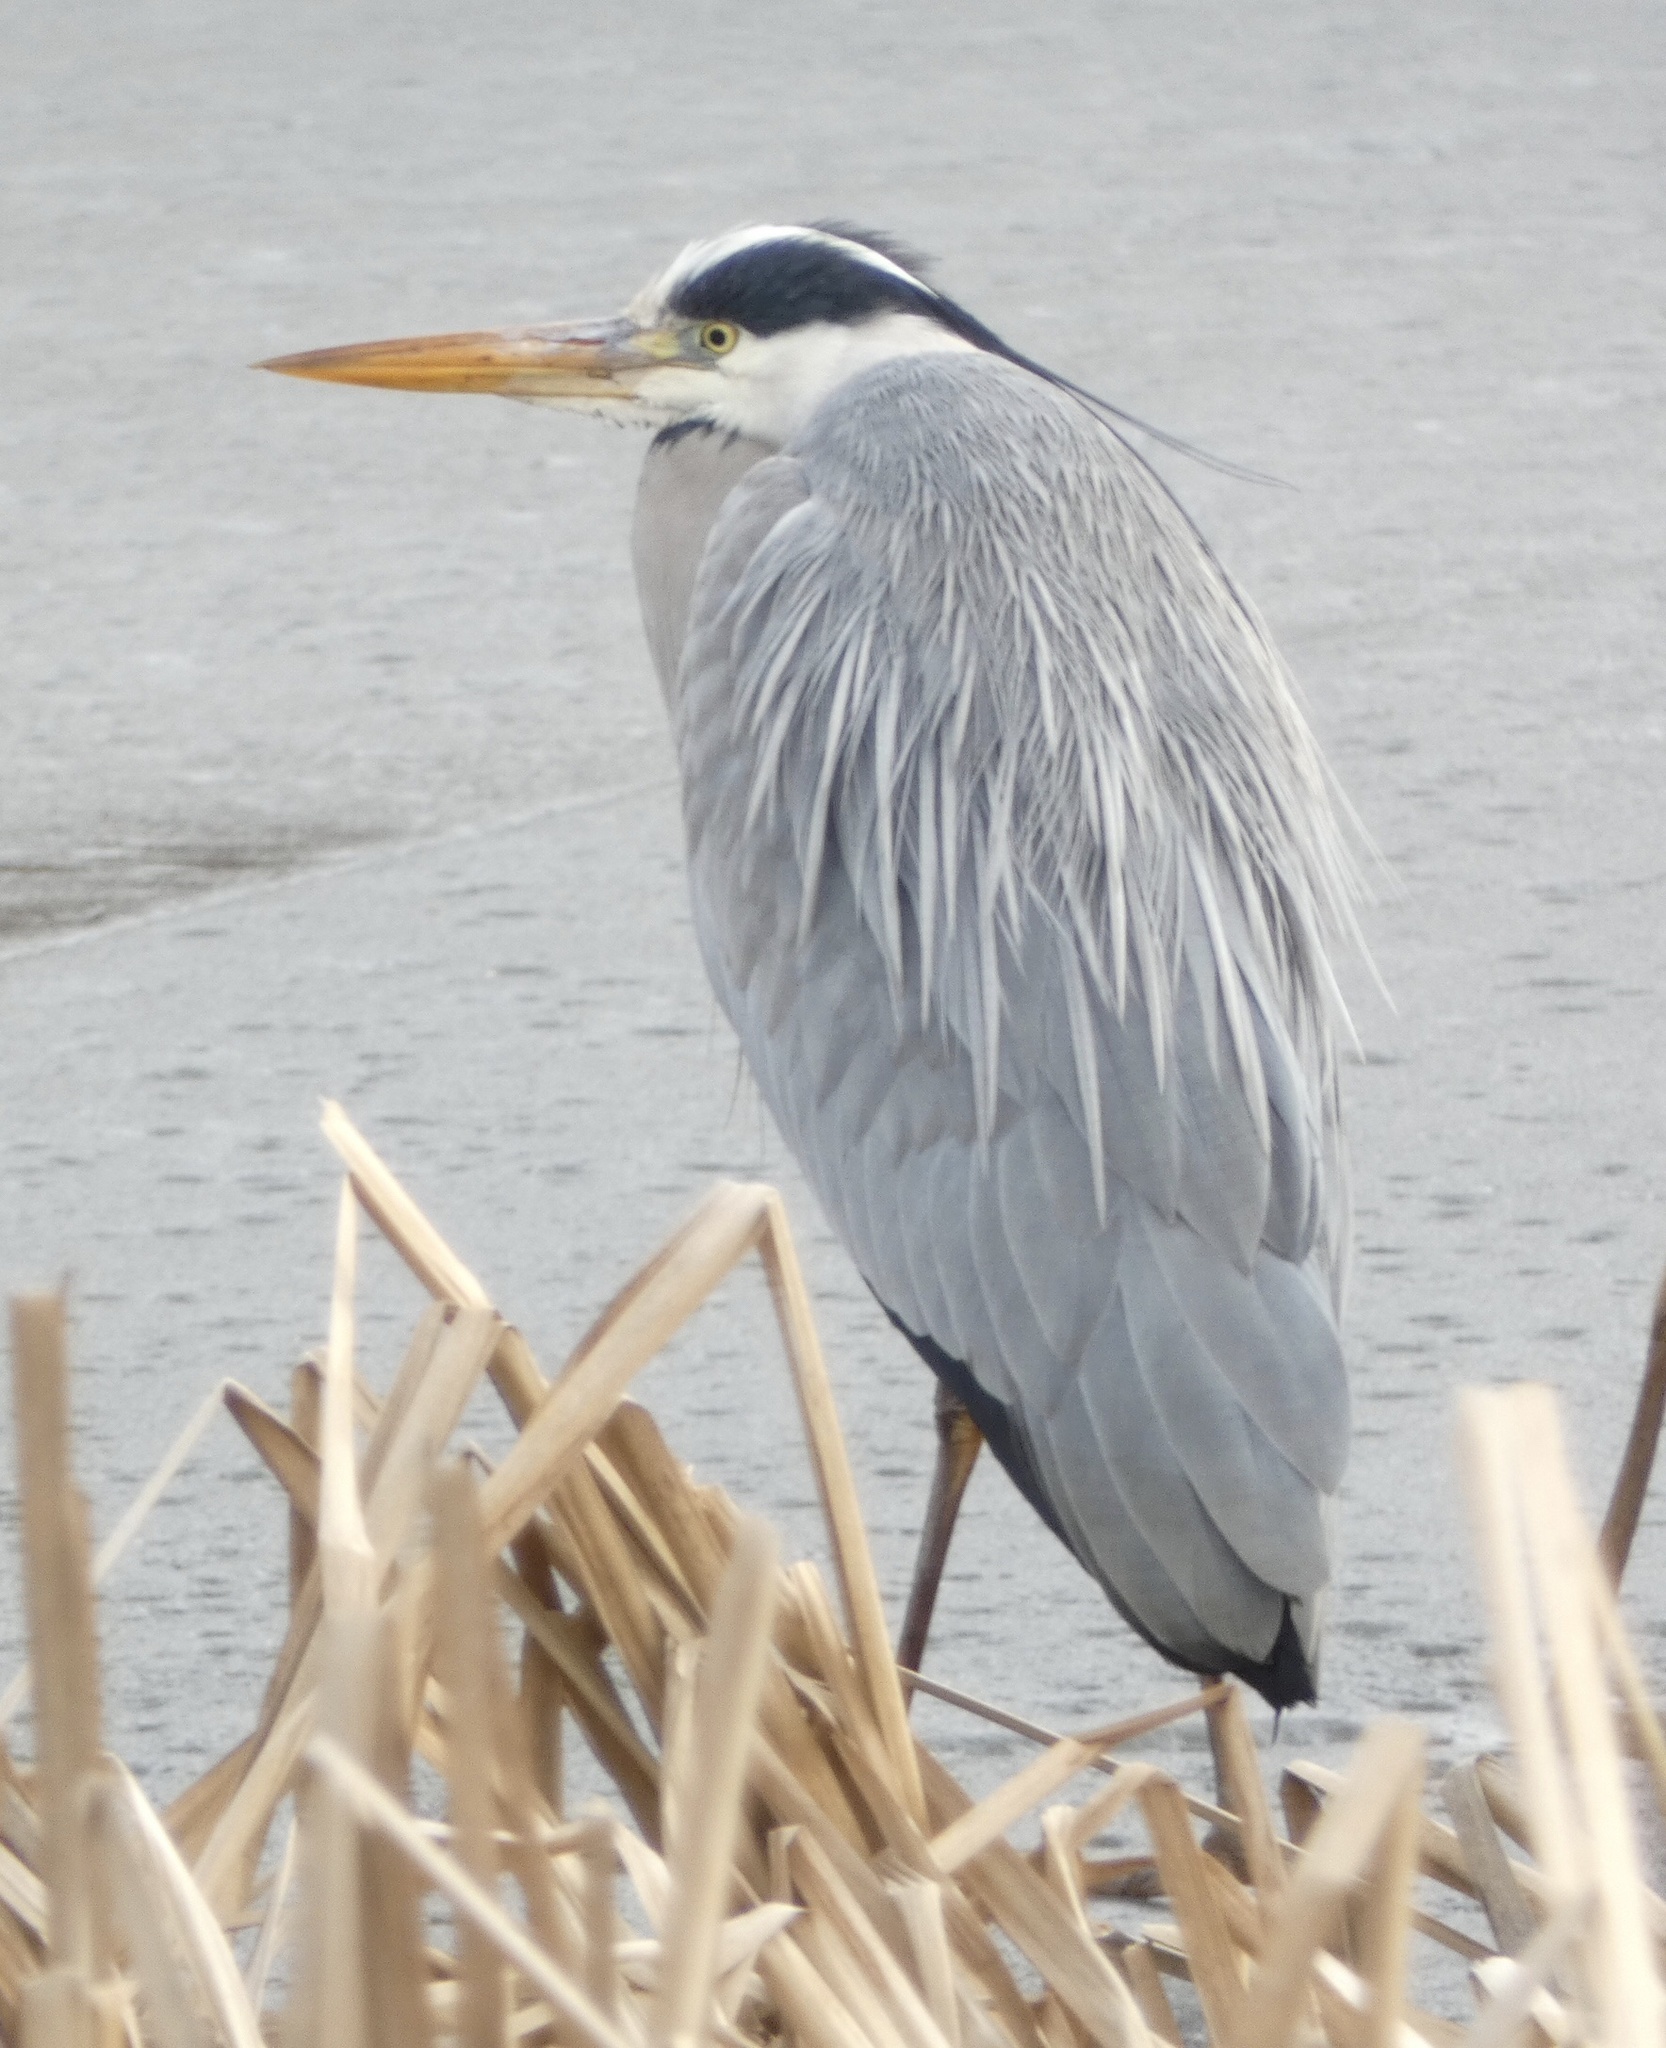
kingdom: Animalia
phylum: Chordata
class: Aves
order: Pelecaniformes
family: Ardeidae
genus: Ardea
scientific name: Ardea cinerea
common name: Grey heron
